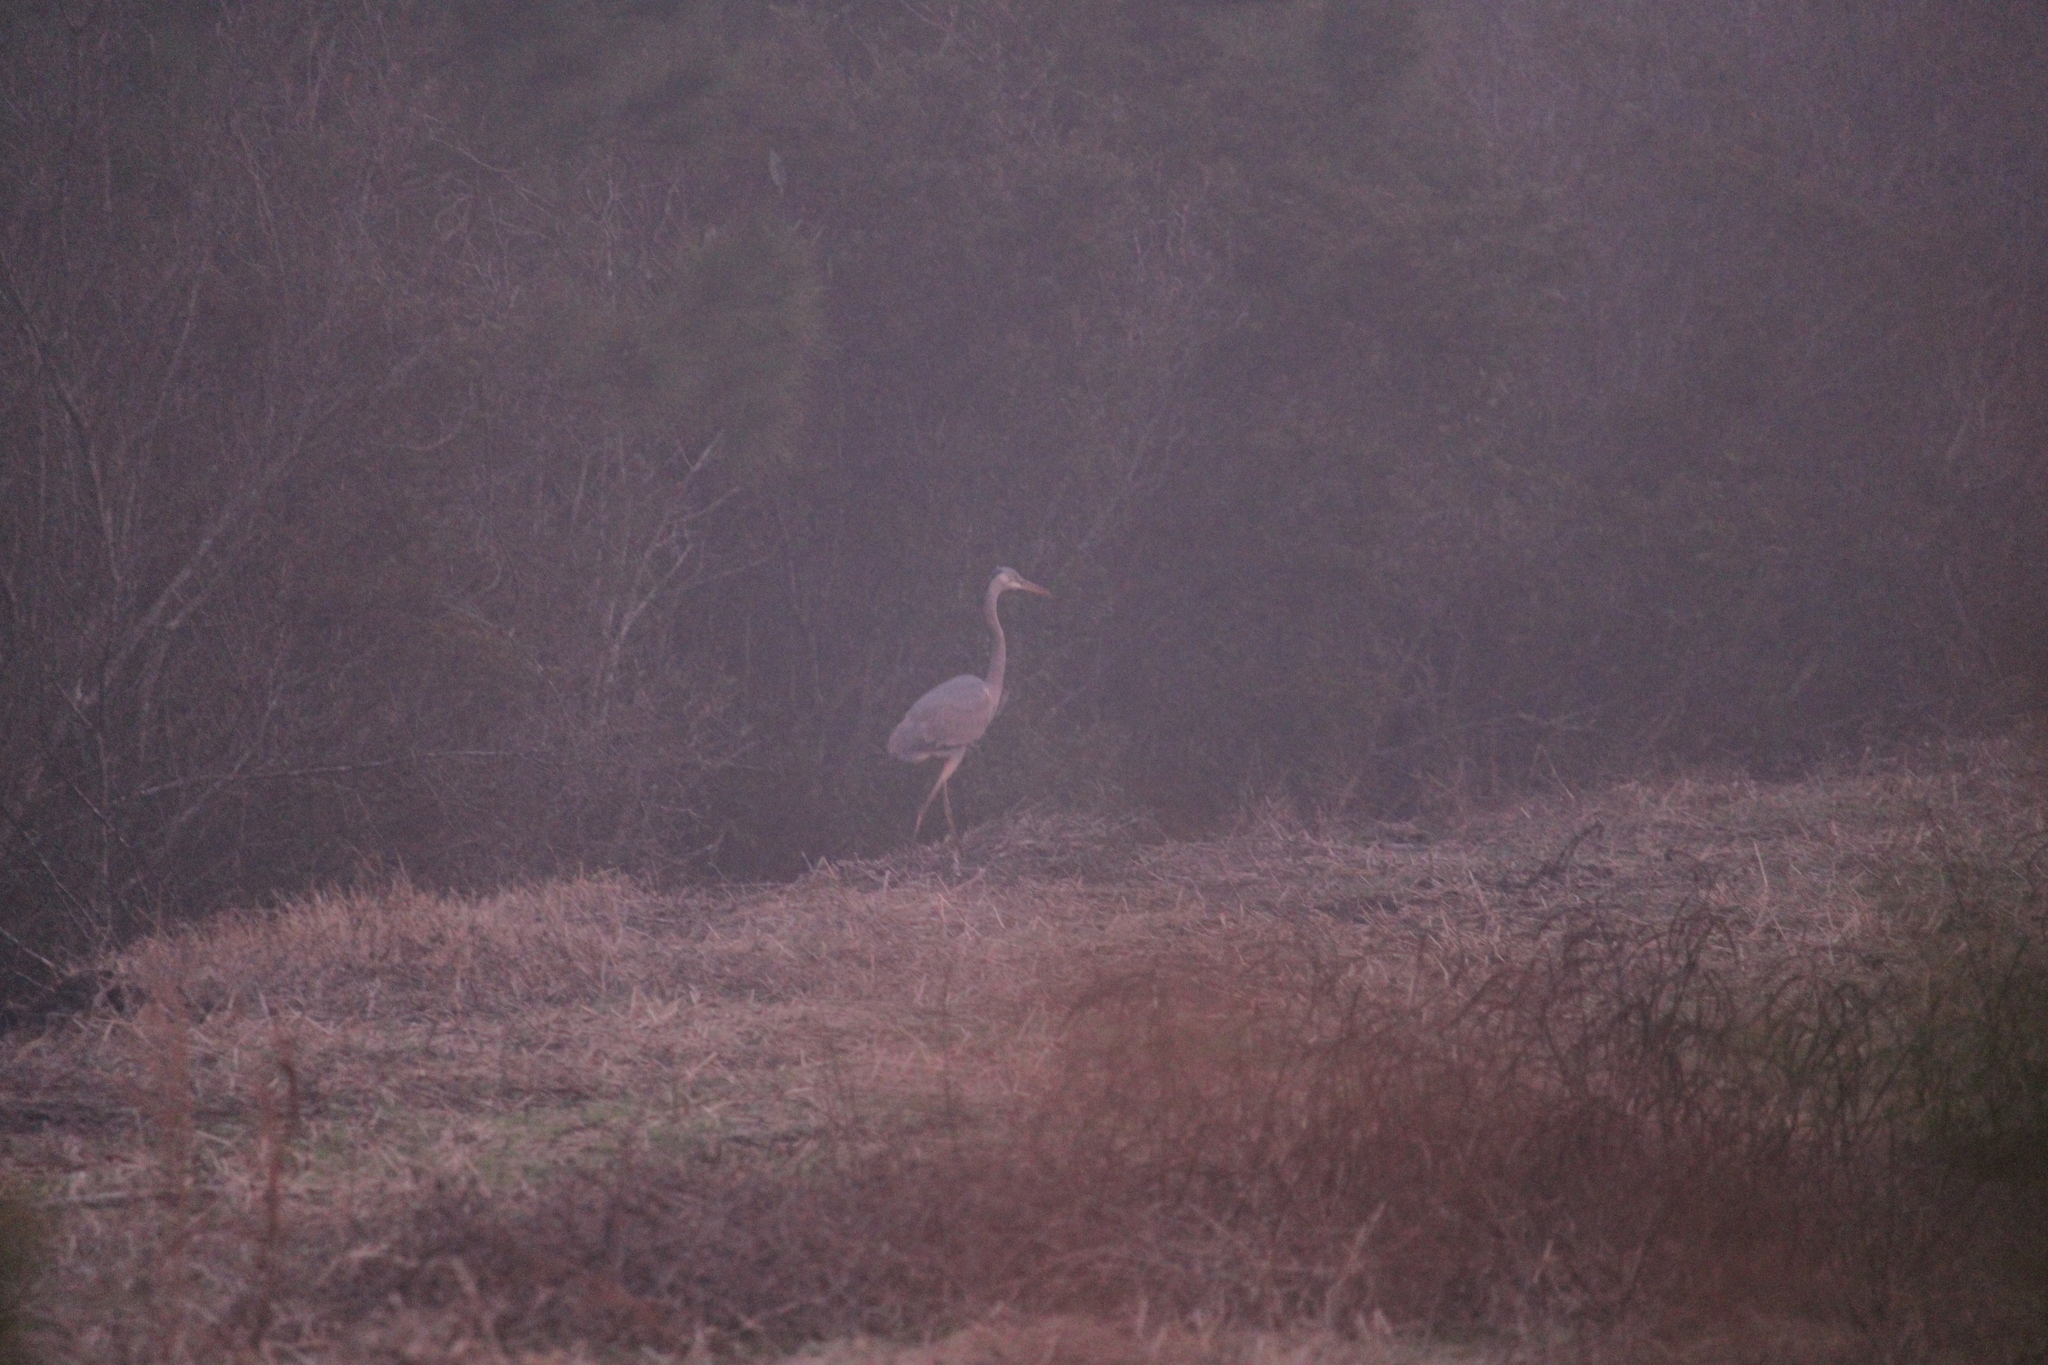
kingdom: Animalia
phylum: Chordata
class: Aves
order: Pelecaniformes
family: Ardeidae
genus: Ardea
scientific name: Ardea herodias
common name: Great blue heron
